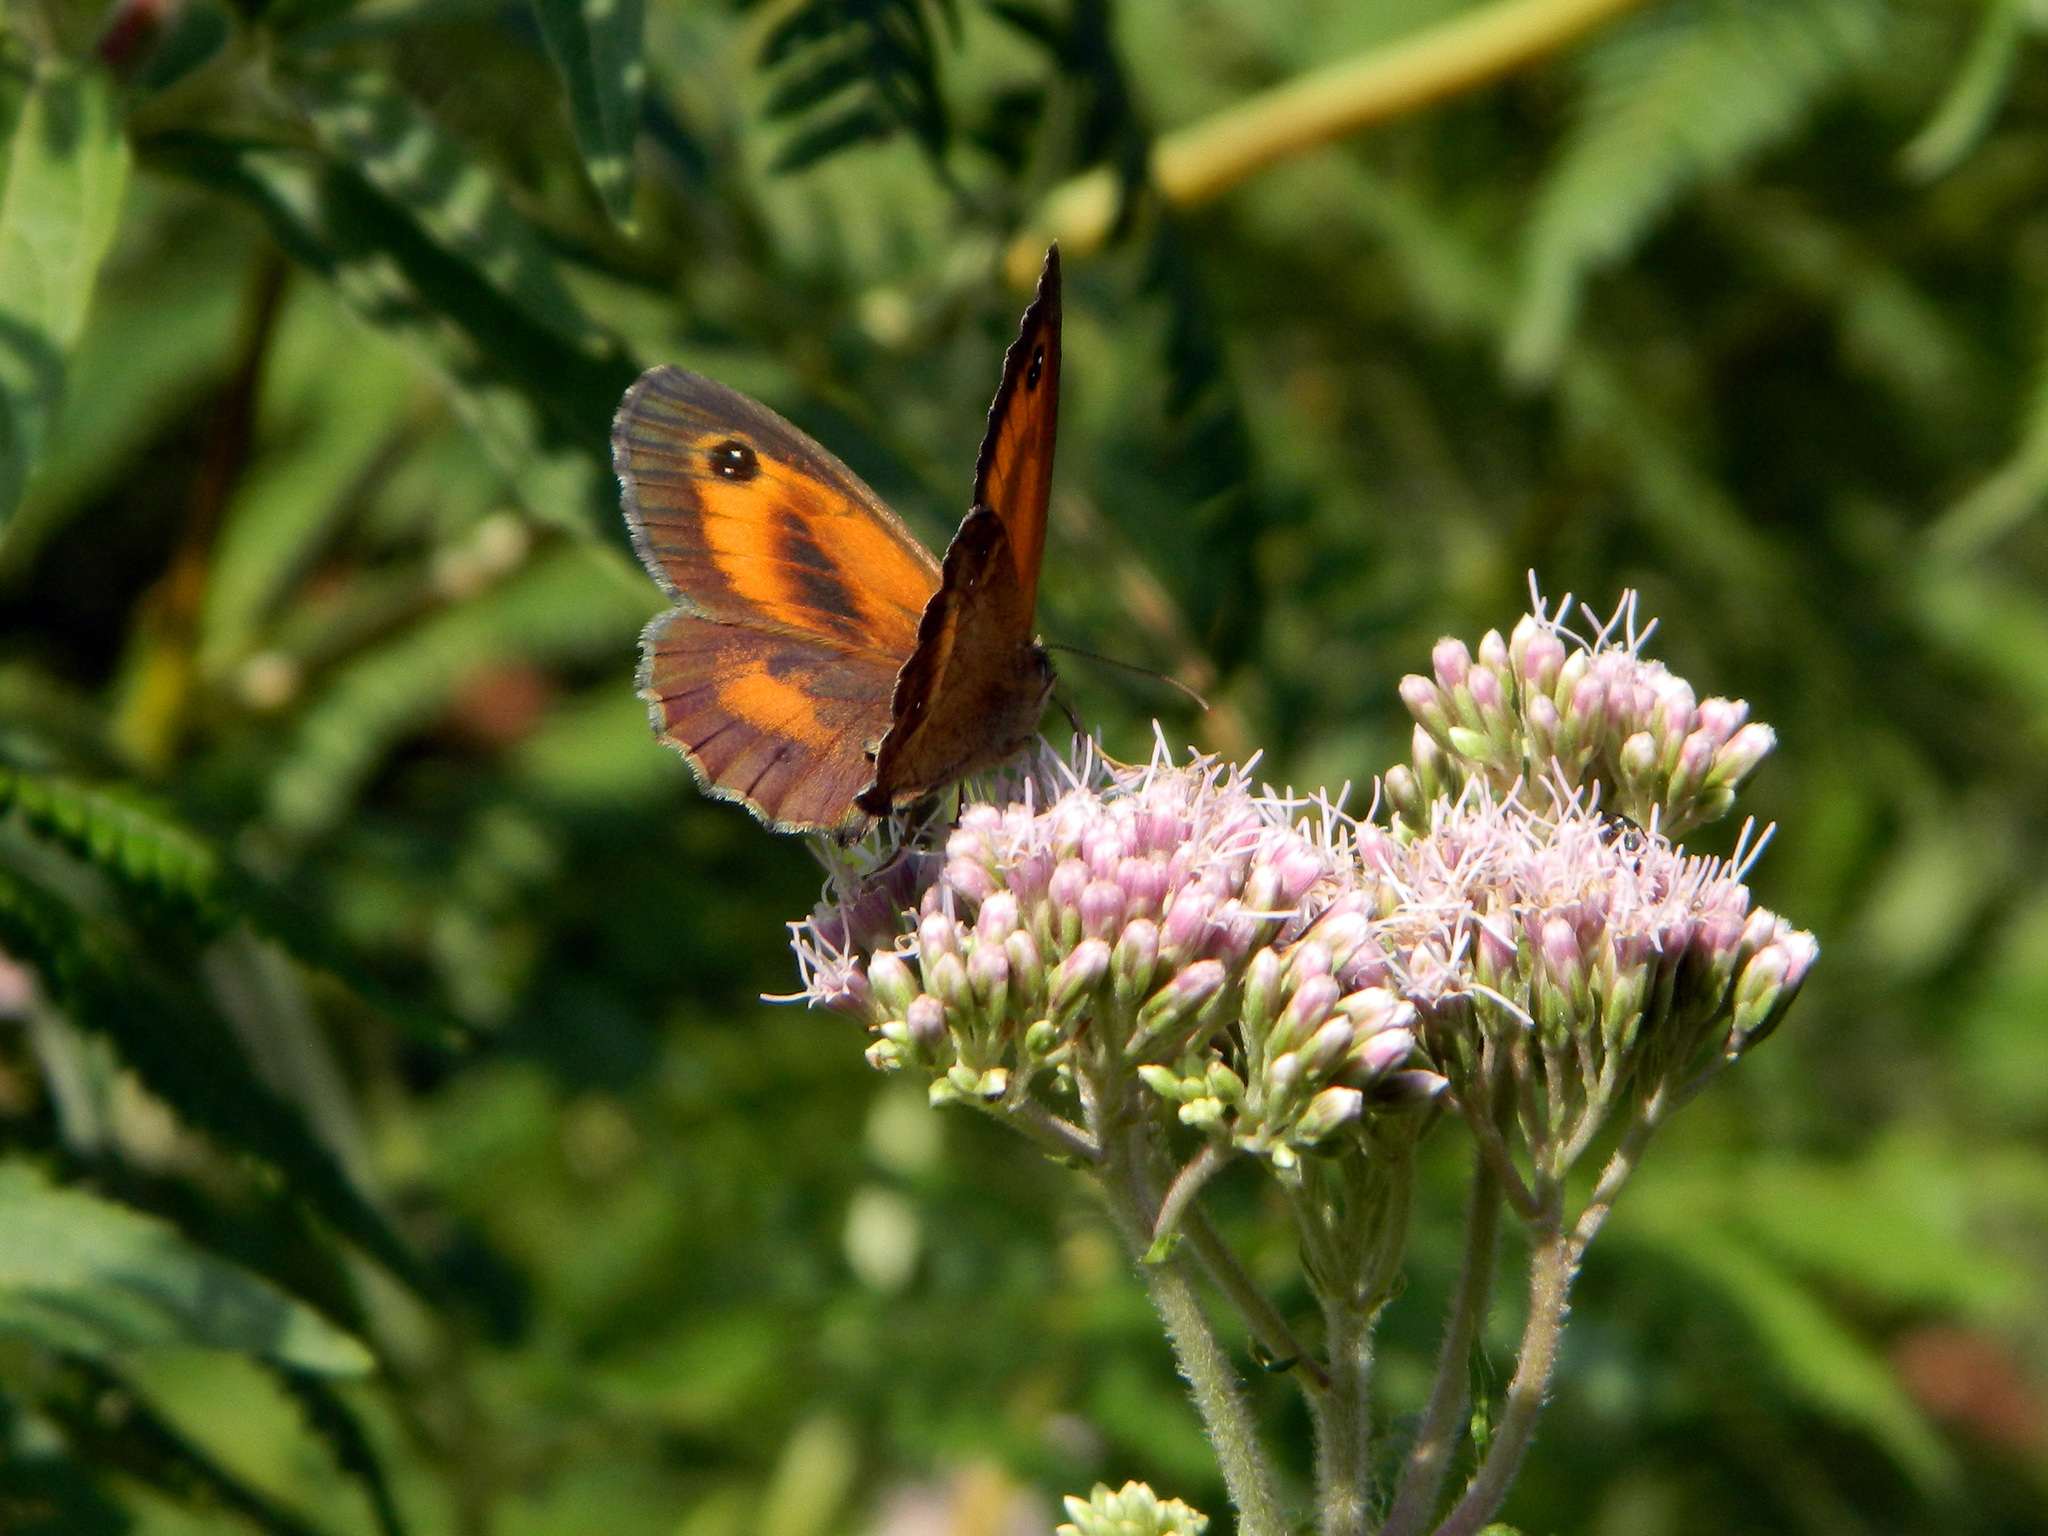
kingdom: Animalia
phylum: Arthropoda
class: Insecta
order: Lepidoptera
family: Nymphalidae
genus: Pyronia
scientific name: Pyronia tithonus
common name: Gatekeeper
